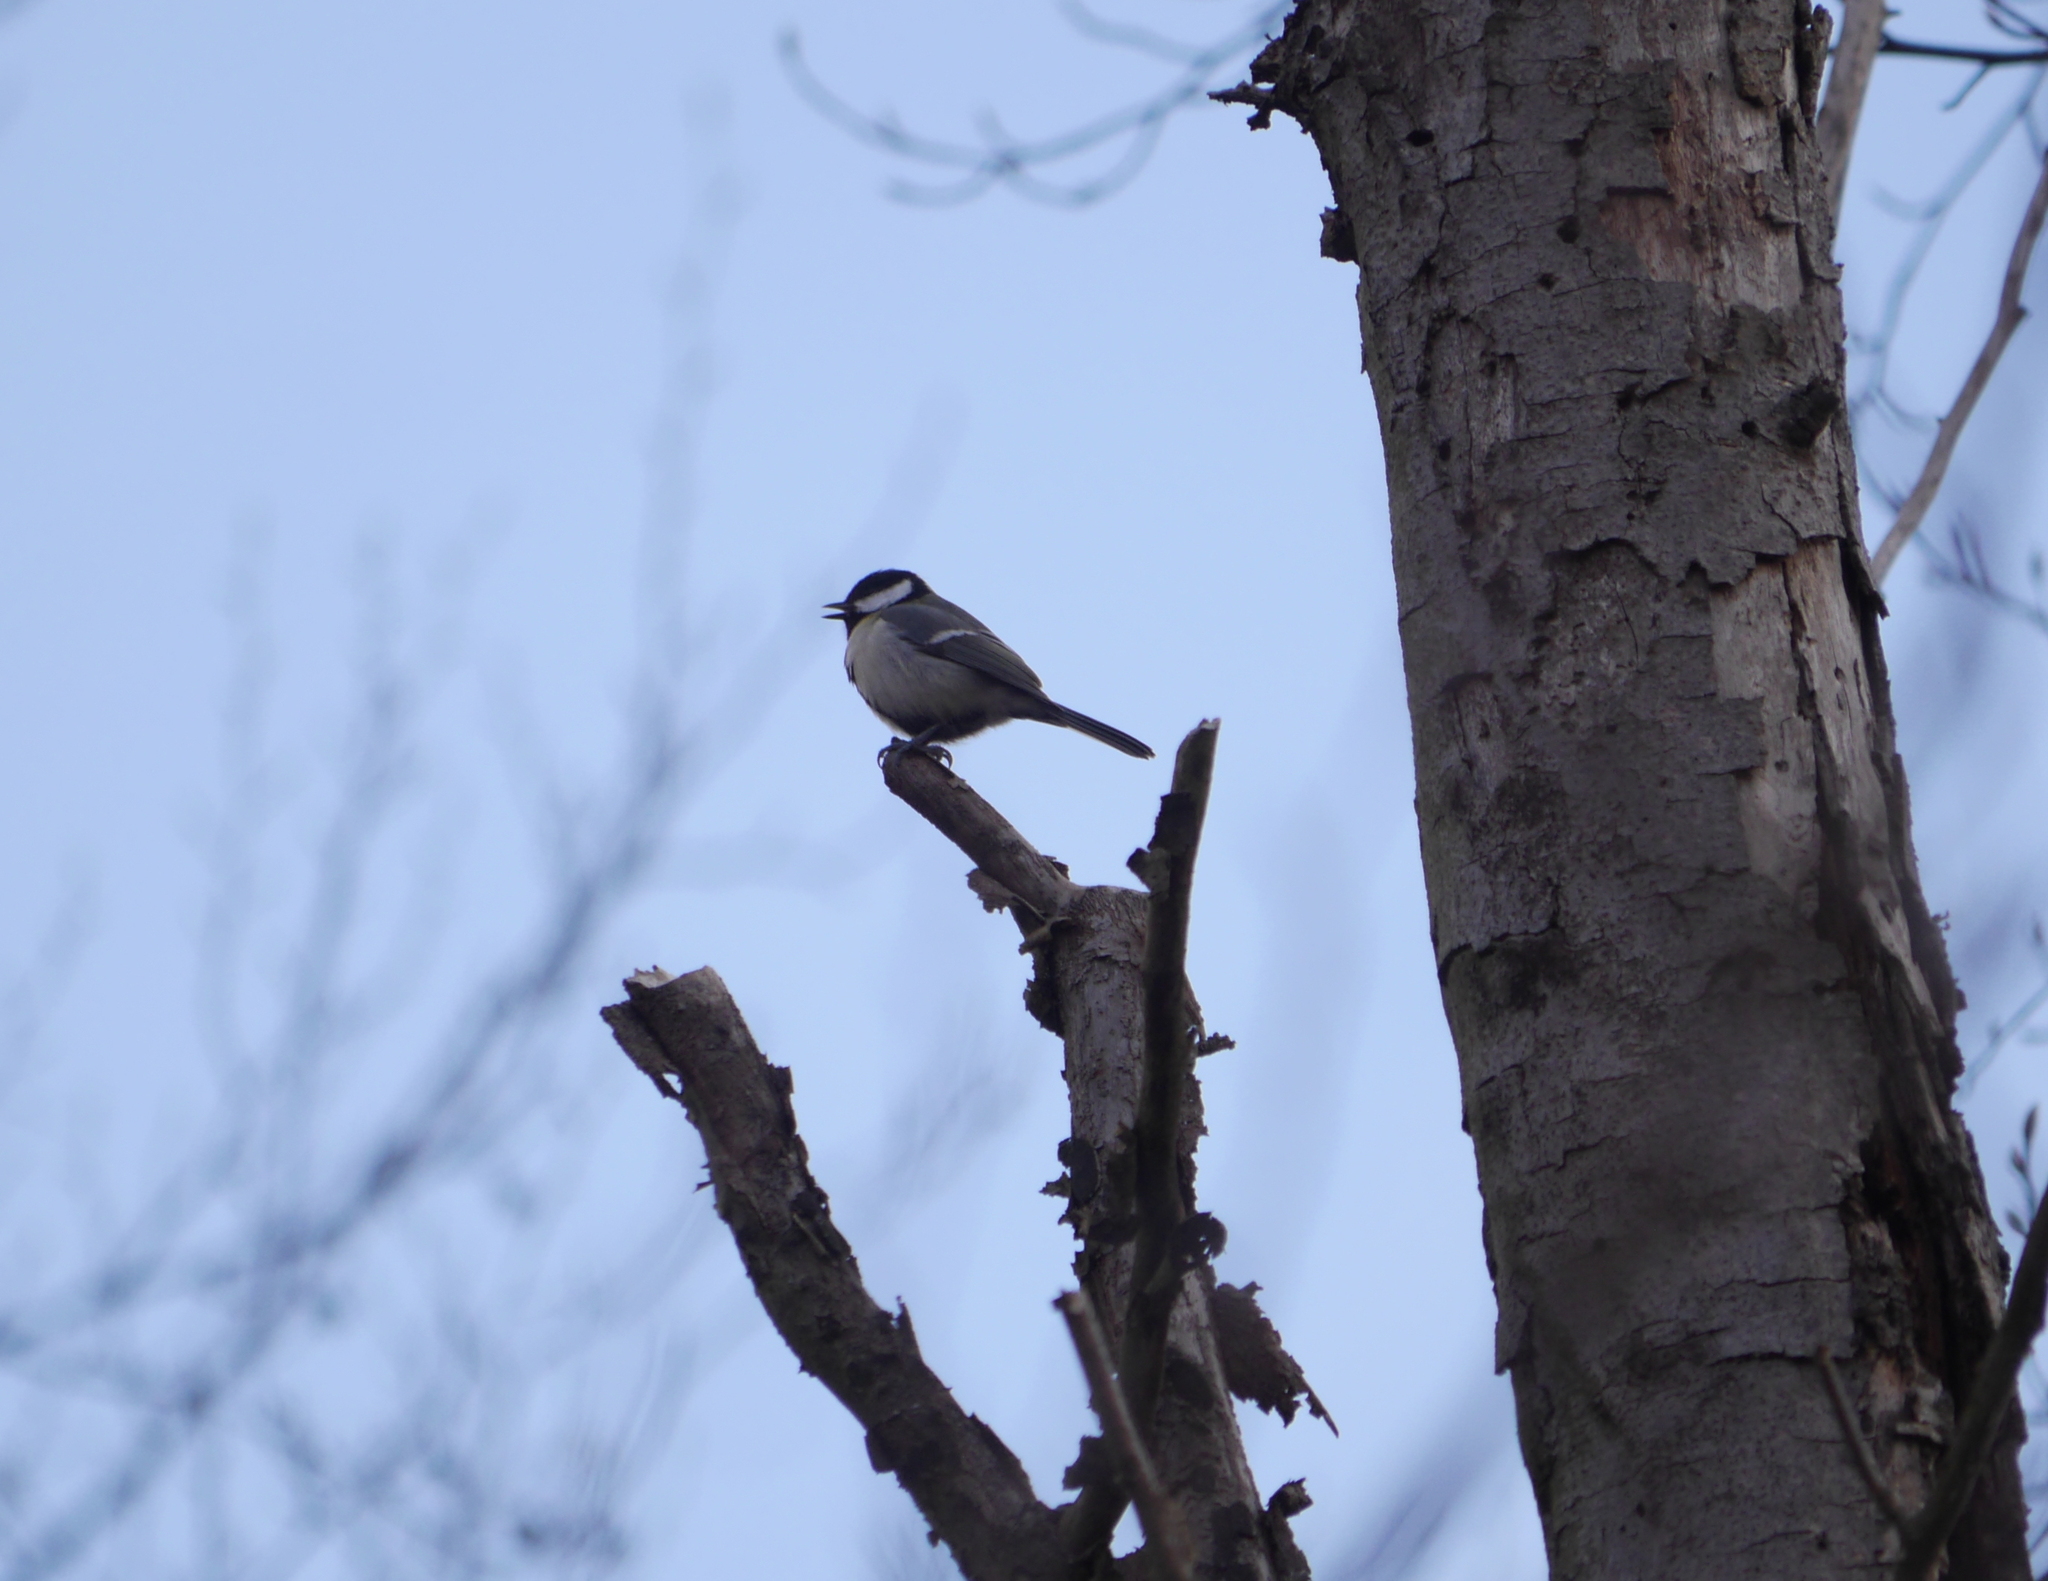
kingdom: Animalia
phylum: Chordata
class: Aves
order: Passeriformes
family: Paridae
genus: Parus
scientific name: Parus major
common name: Great tit
